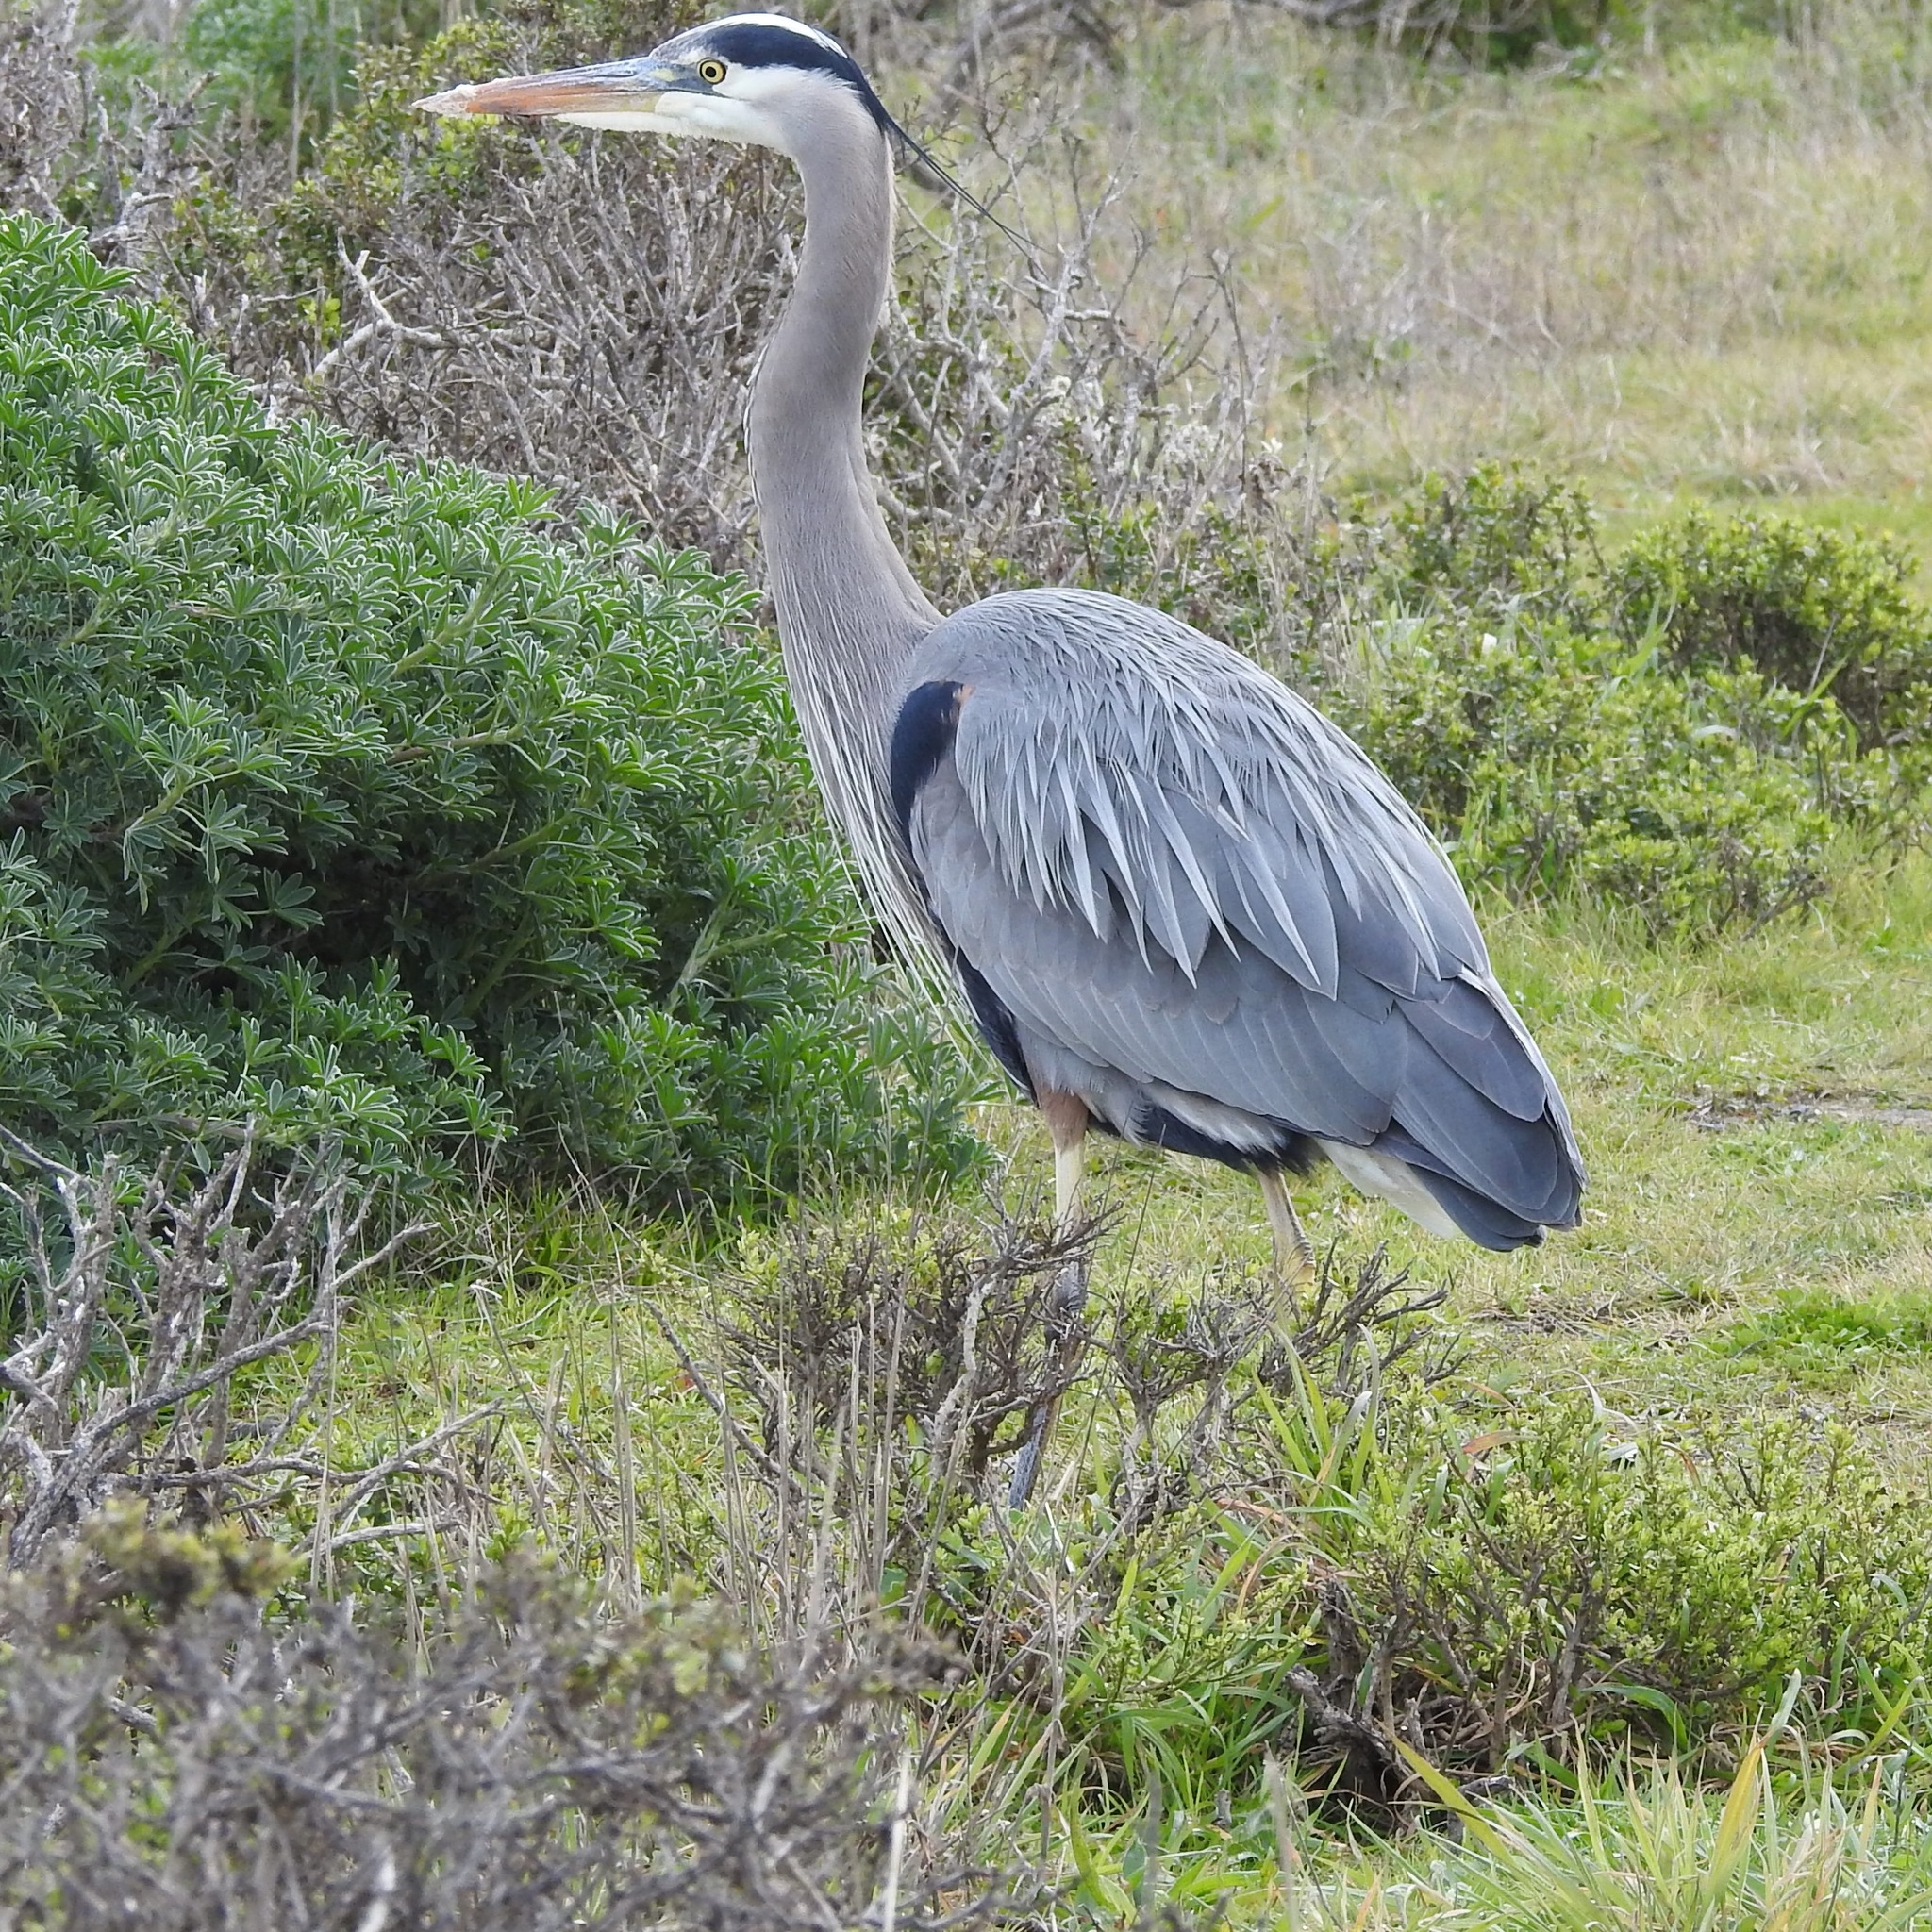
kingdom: Animalia
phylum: Chordata
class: Aves
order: Pelecaniformes
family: Ardeidae
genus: Ardea
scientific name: Ardea herodias
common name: Great blue heron
